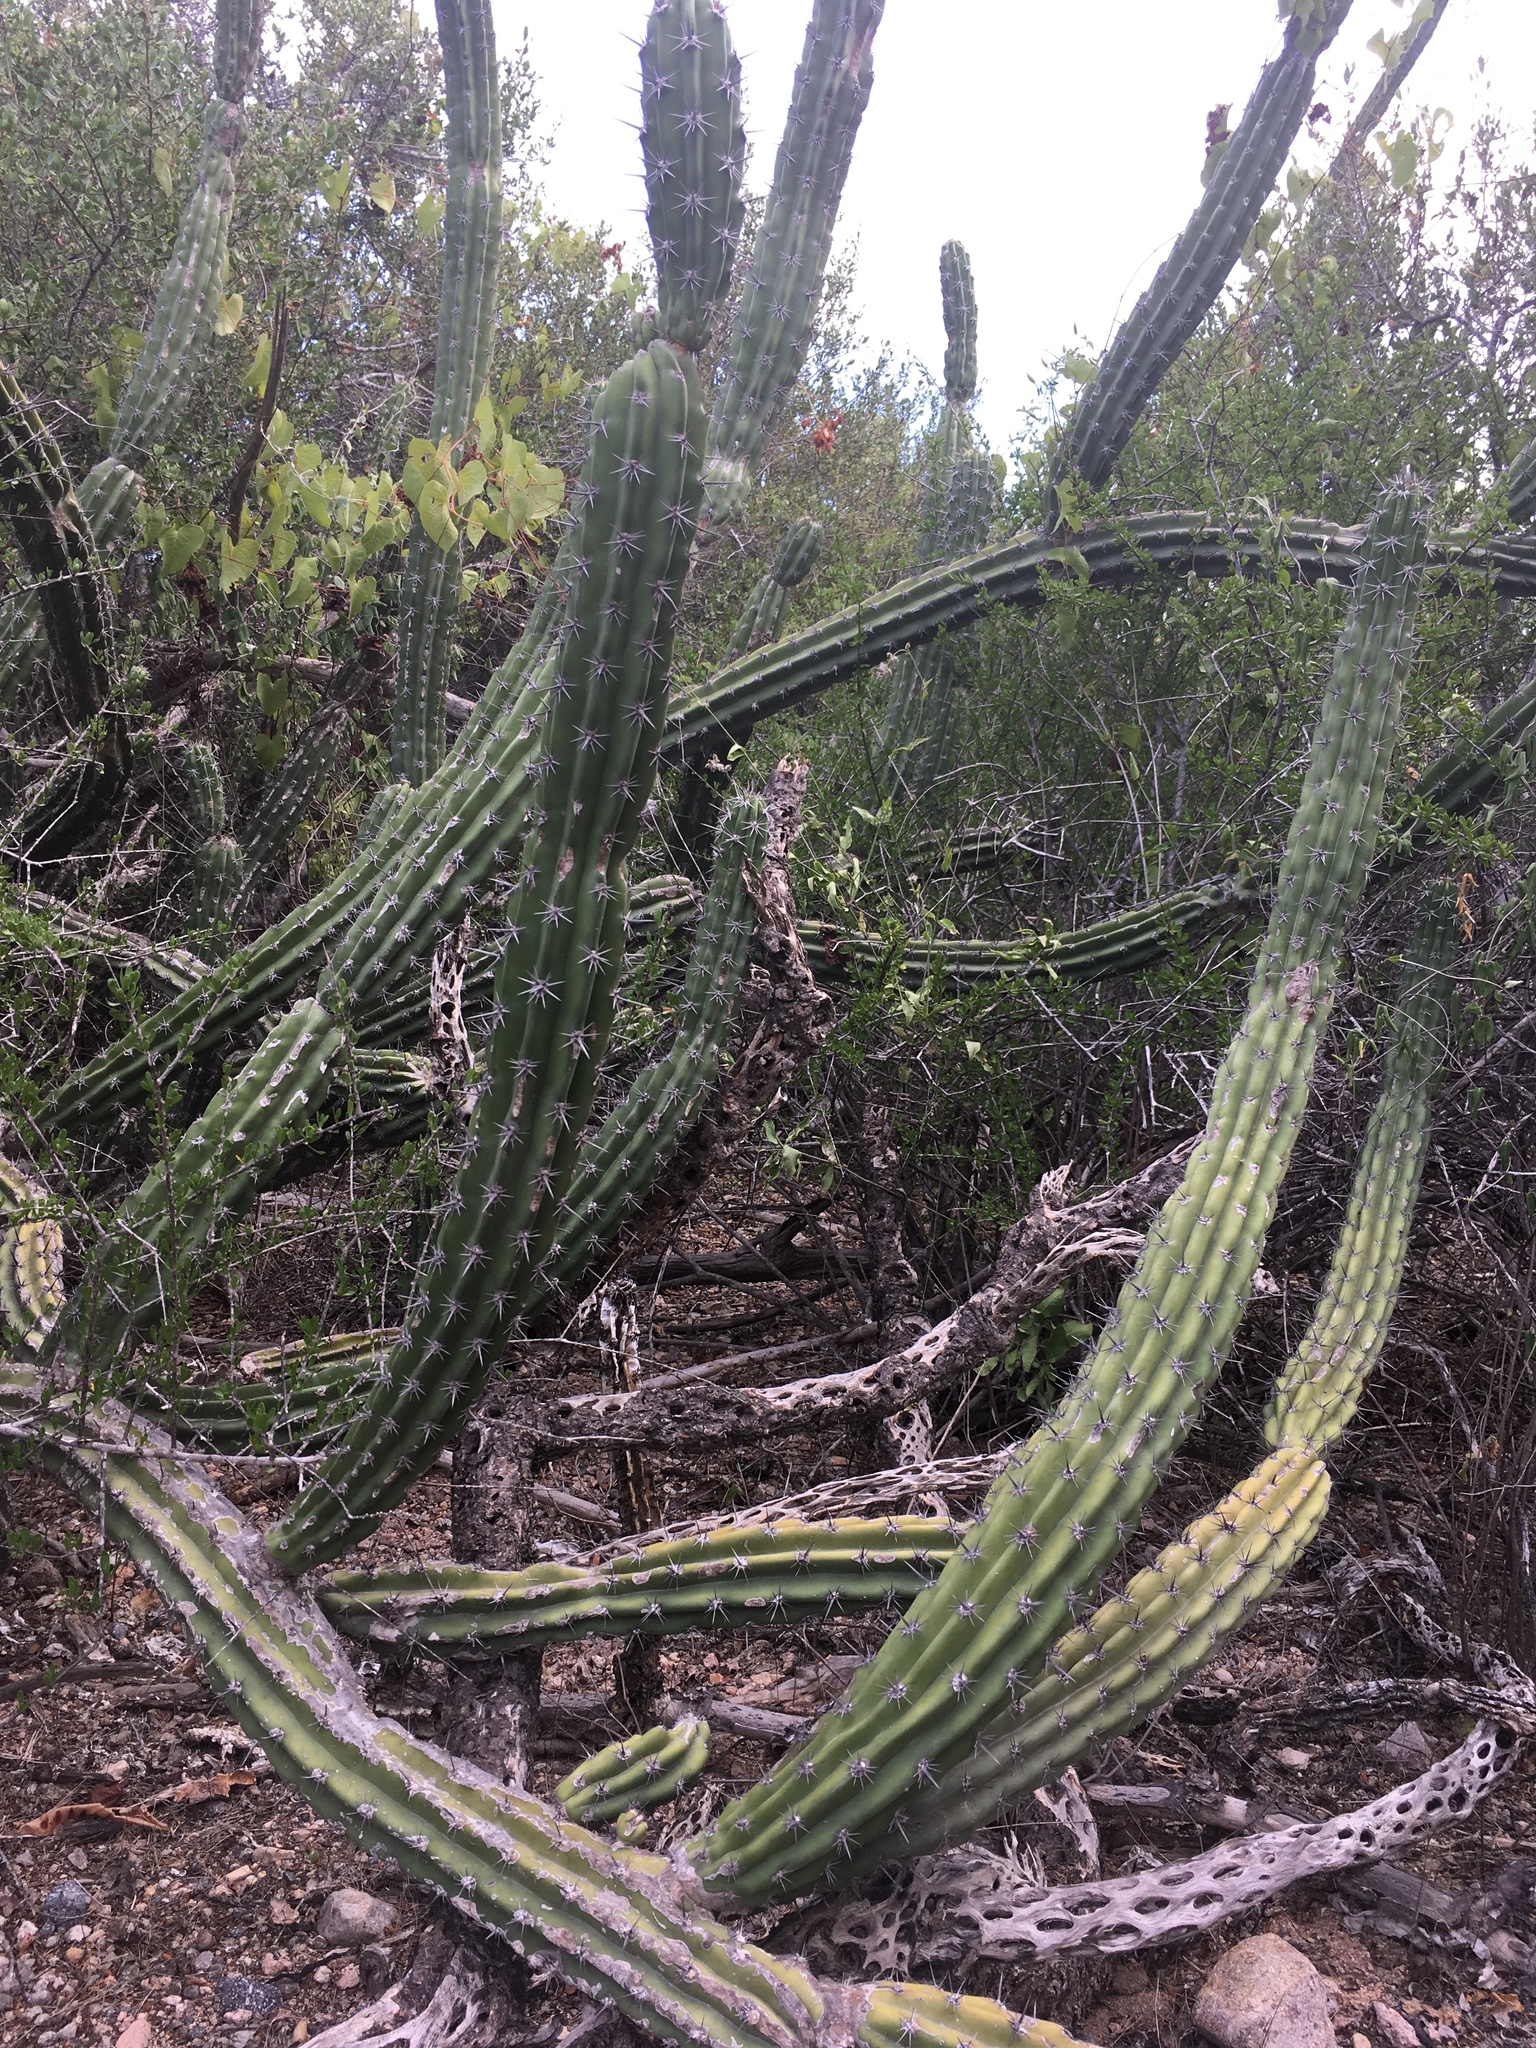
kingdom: Plantae
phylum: Tracheophyta
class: Magnoliopsida
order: Caryophyllales
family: Cactaceae
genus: Stenocereus
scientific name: Stenocereus gummosus
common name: Dagger cactus
